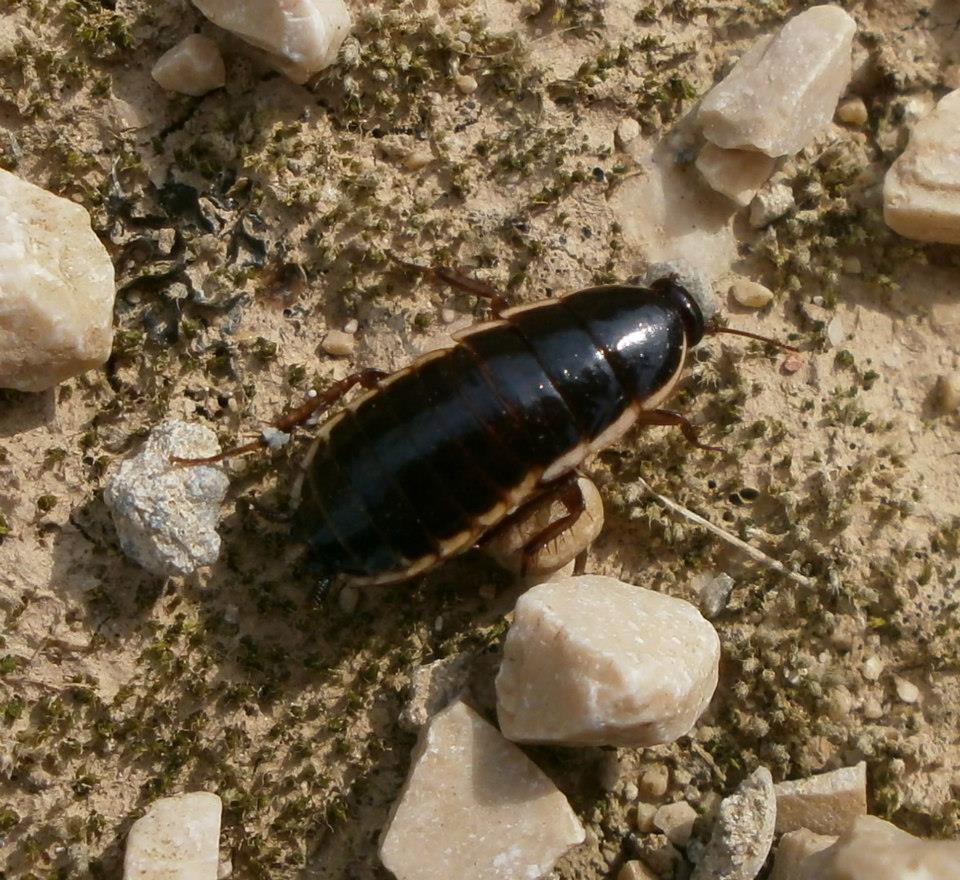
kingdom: Animalia
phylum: Arthropoda
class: Insecta
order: Blattodea
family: Ectobiidae
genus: Loboptera
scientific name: Loboptera decipiens
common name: Lobe-winged cockroach
